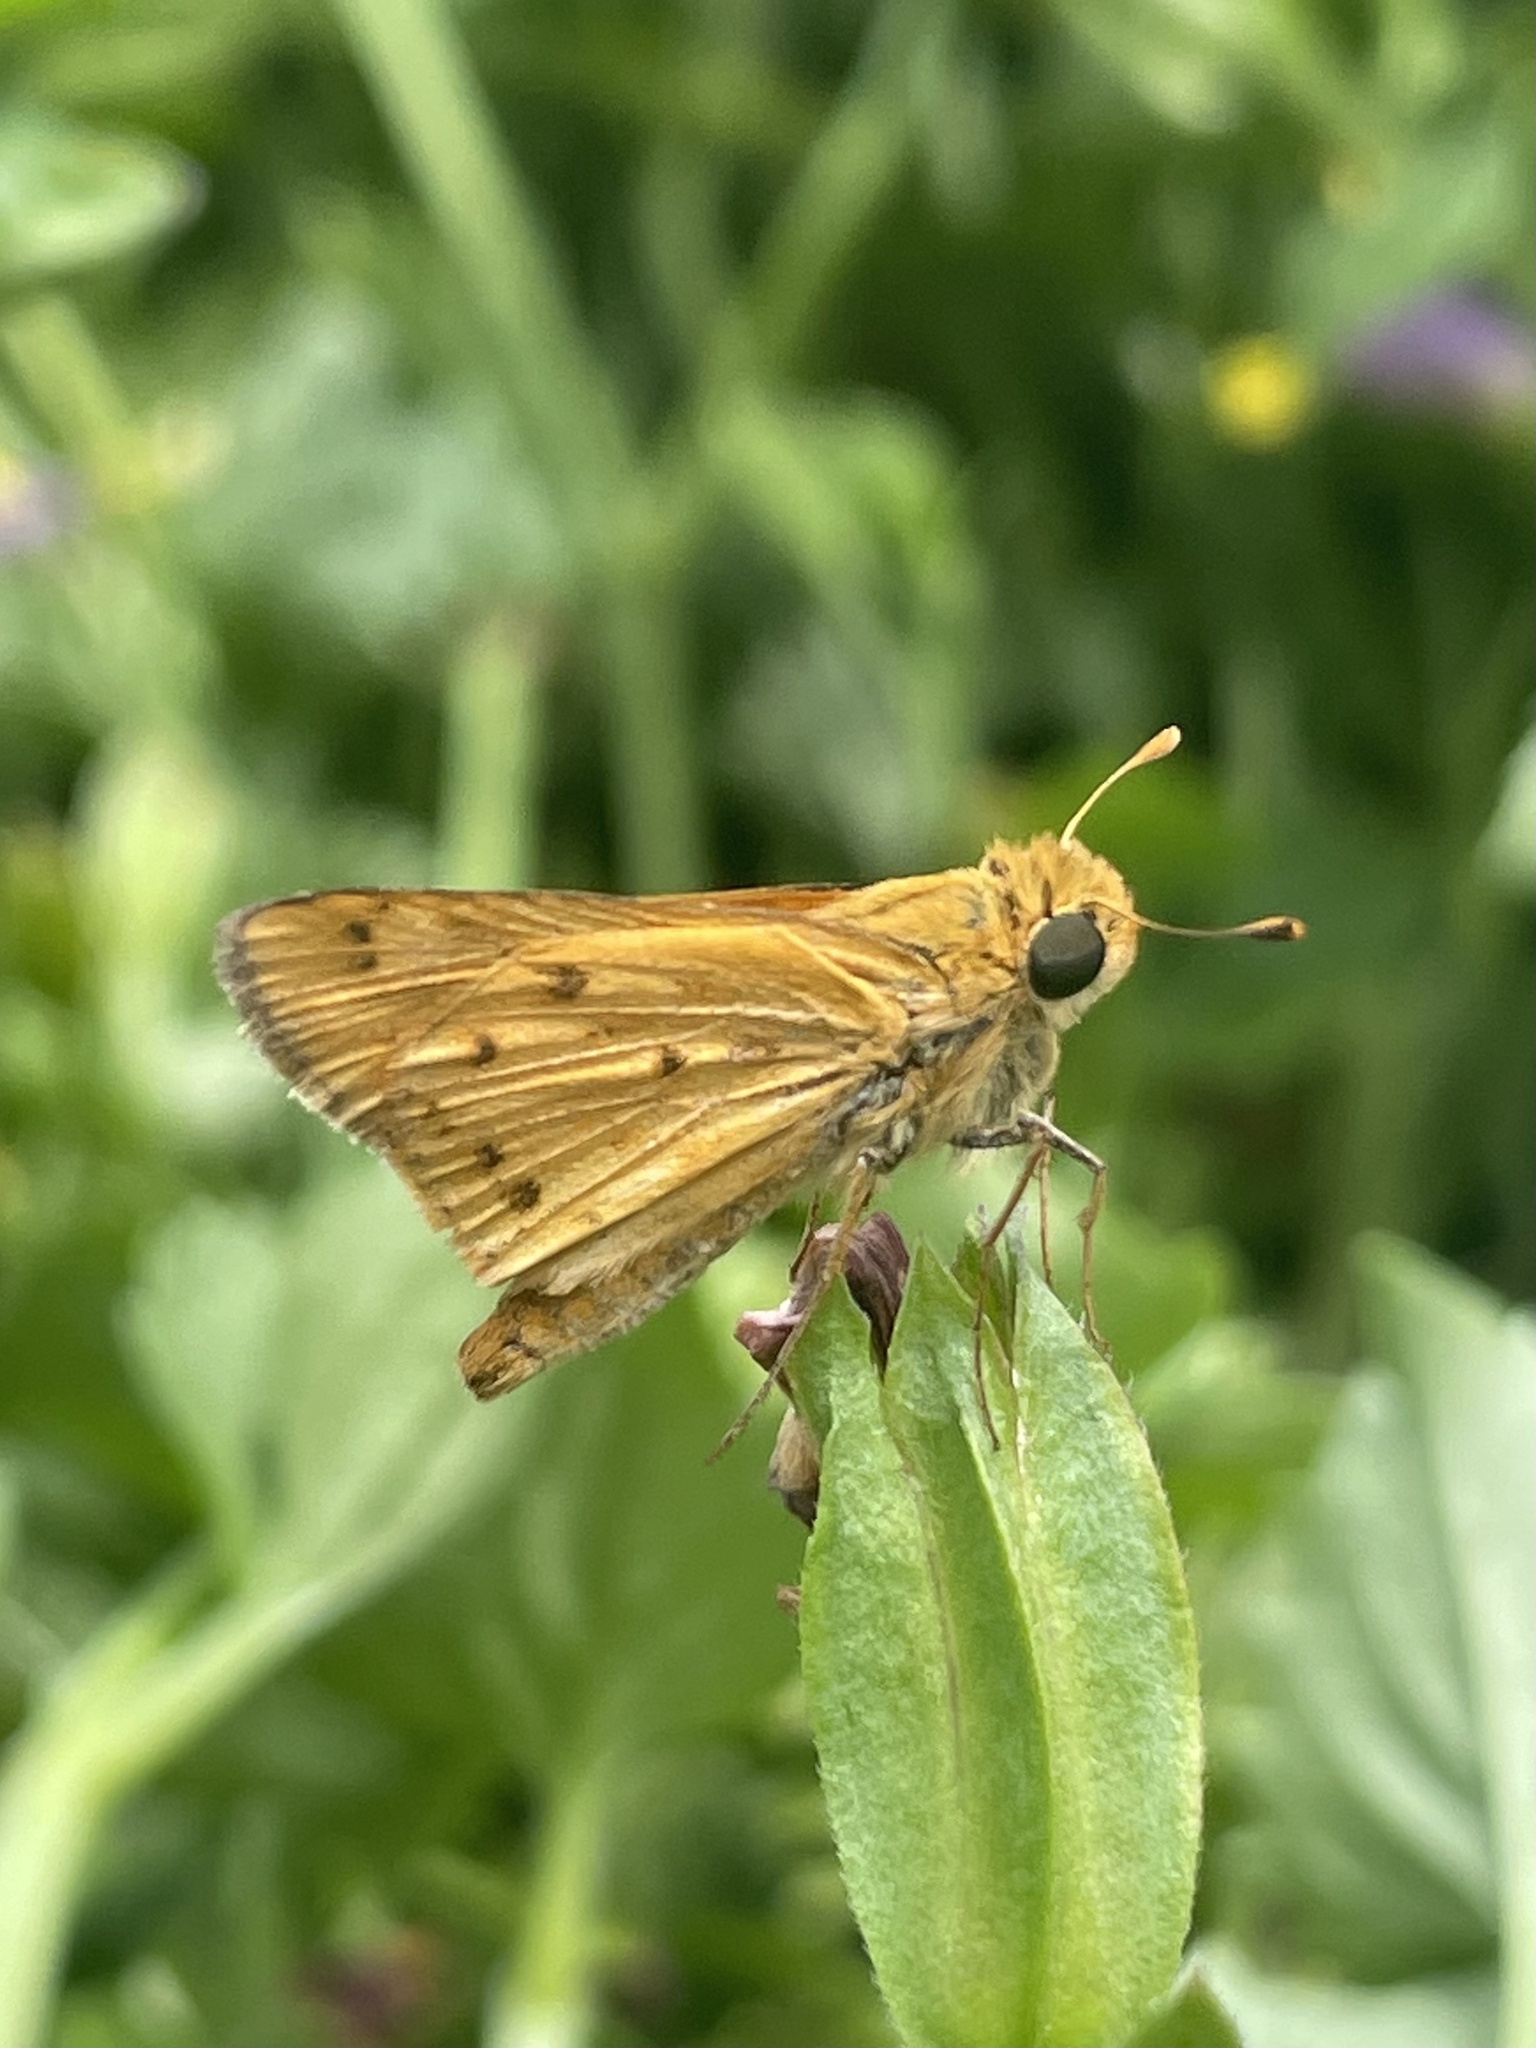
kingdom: Animalia
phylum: Arthropoda
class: Insecta
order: Lepidoptera
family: Hesperiidae
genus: Hylephila
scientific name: Hylephila phyleus
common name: Fiery skipper
